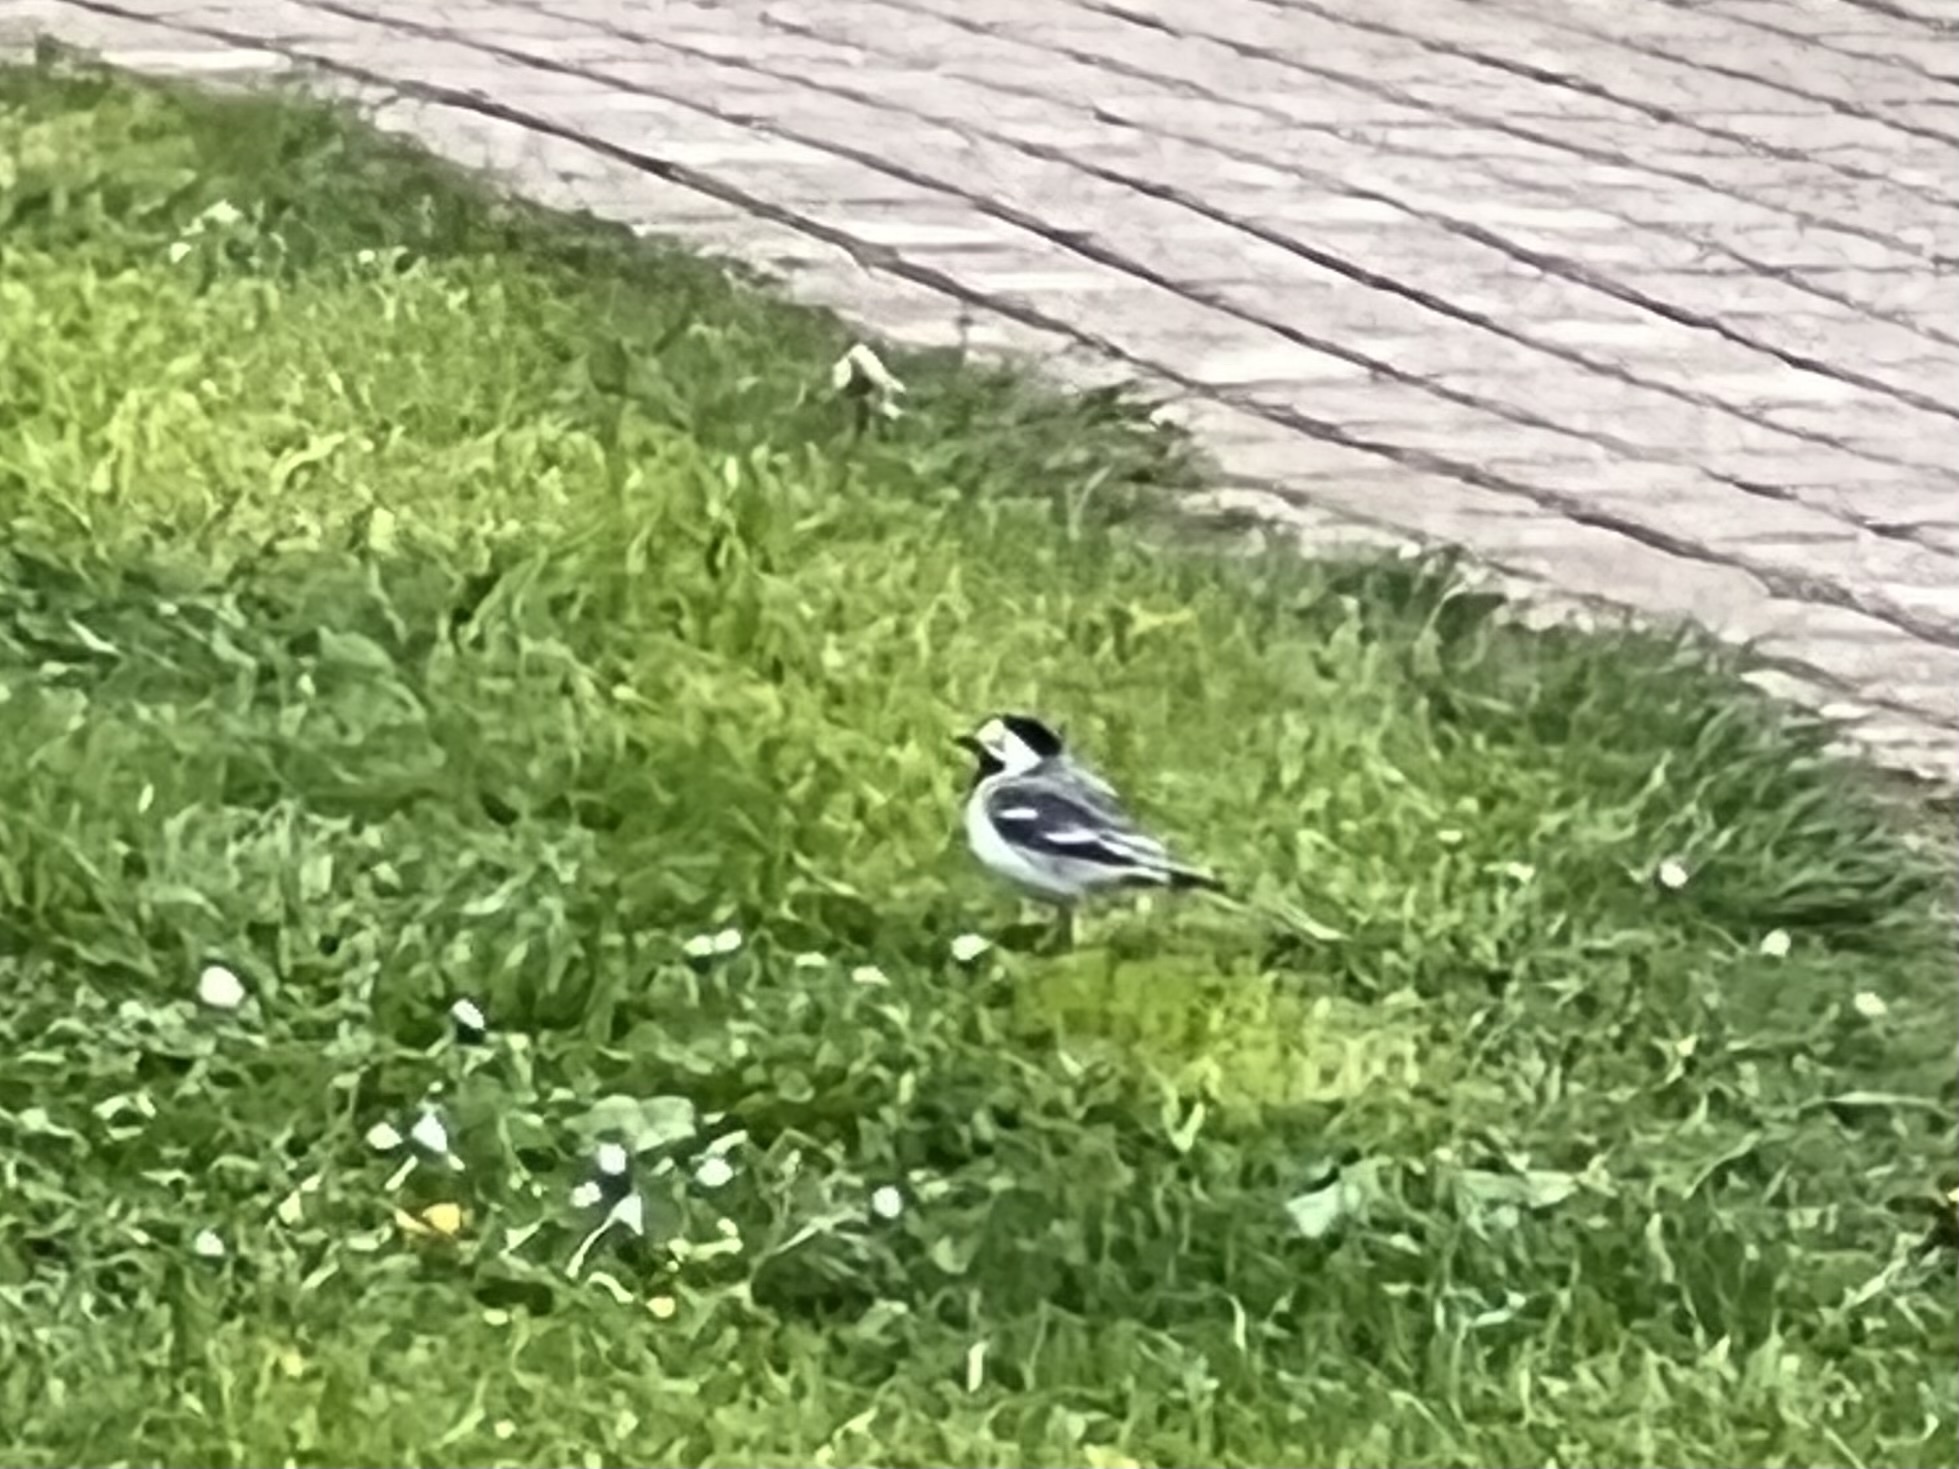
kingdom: Animalia
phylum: Chordata
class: Aves
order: Passeriformes
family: Motacillidae
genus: Motacilla
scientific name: Motacilla alba
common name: White wagtail
